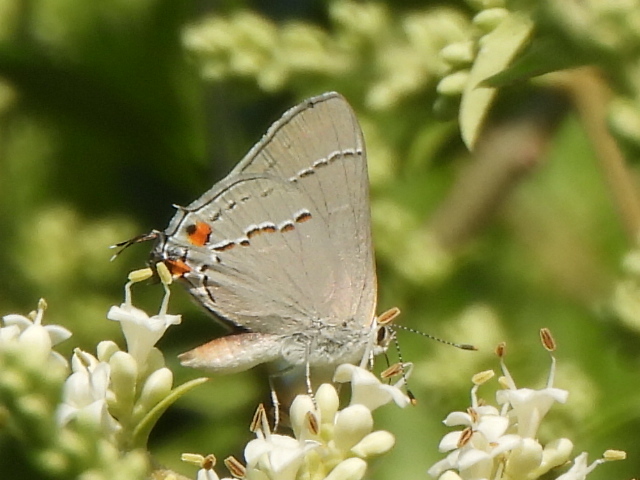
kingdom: Animalia
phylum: Arthropoda
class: Insecta
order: Lepidoptera
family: Lycaenidae
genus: Strymon
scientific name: Strymon melinus
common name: Gray hairstreak
